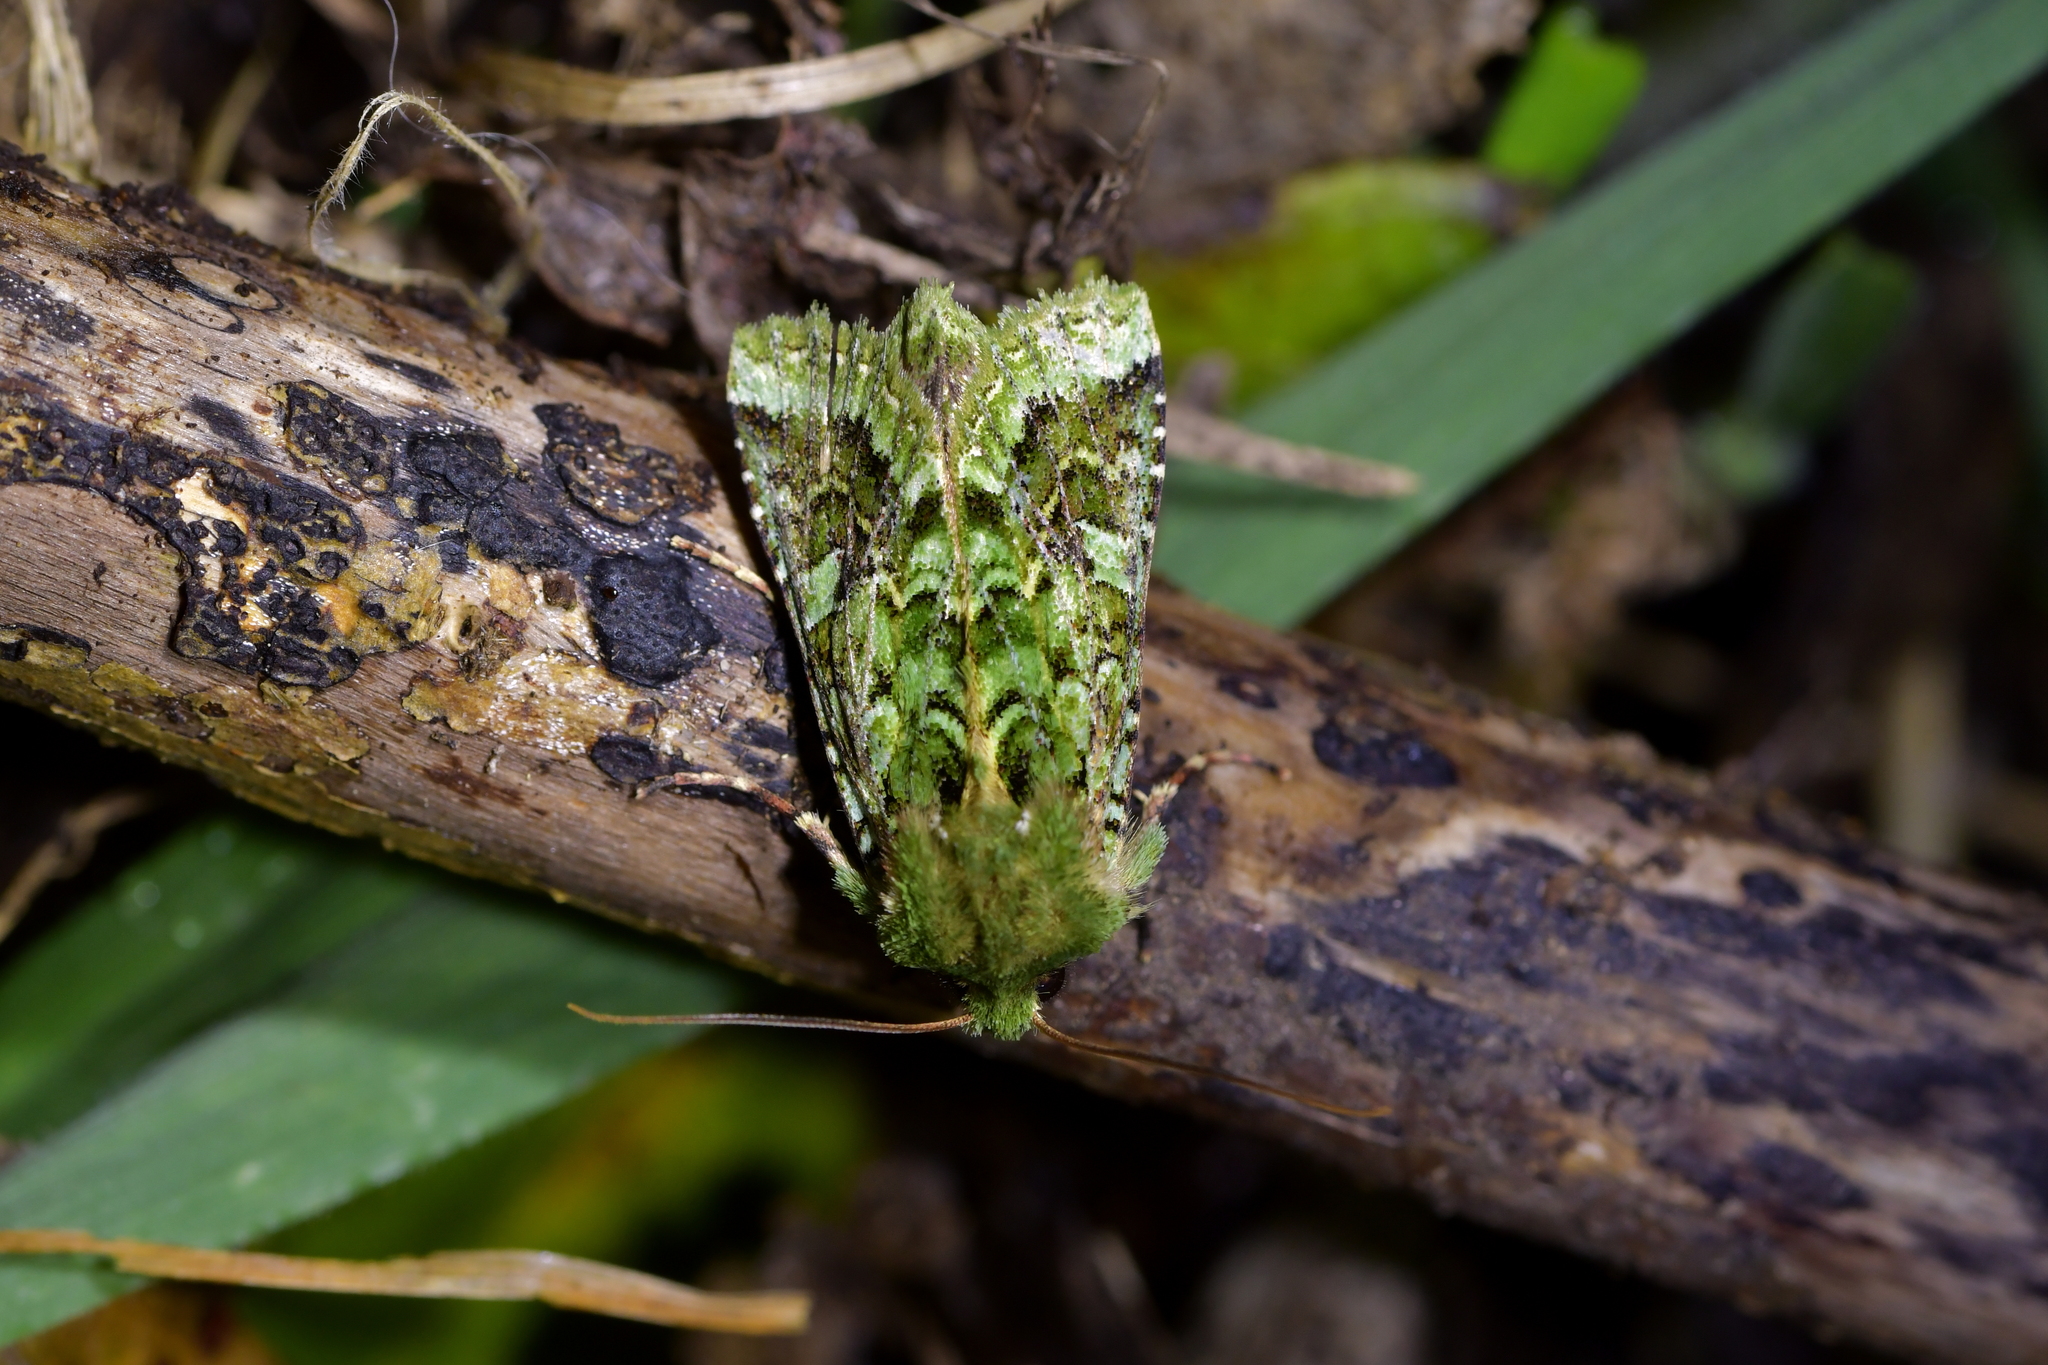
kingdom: Animalia
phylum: Arthropoda
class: Insecta
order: Lepidoptera
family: Noctuidae
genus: Feredayia
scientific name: Feredayia grammosa
